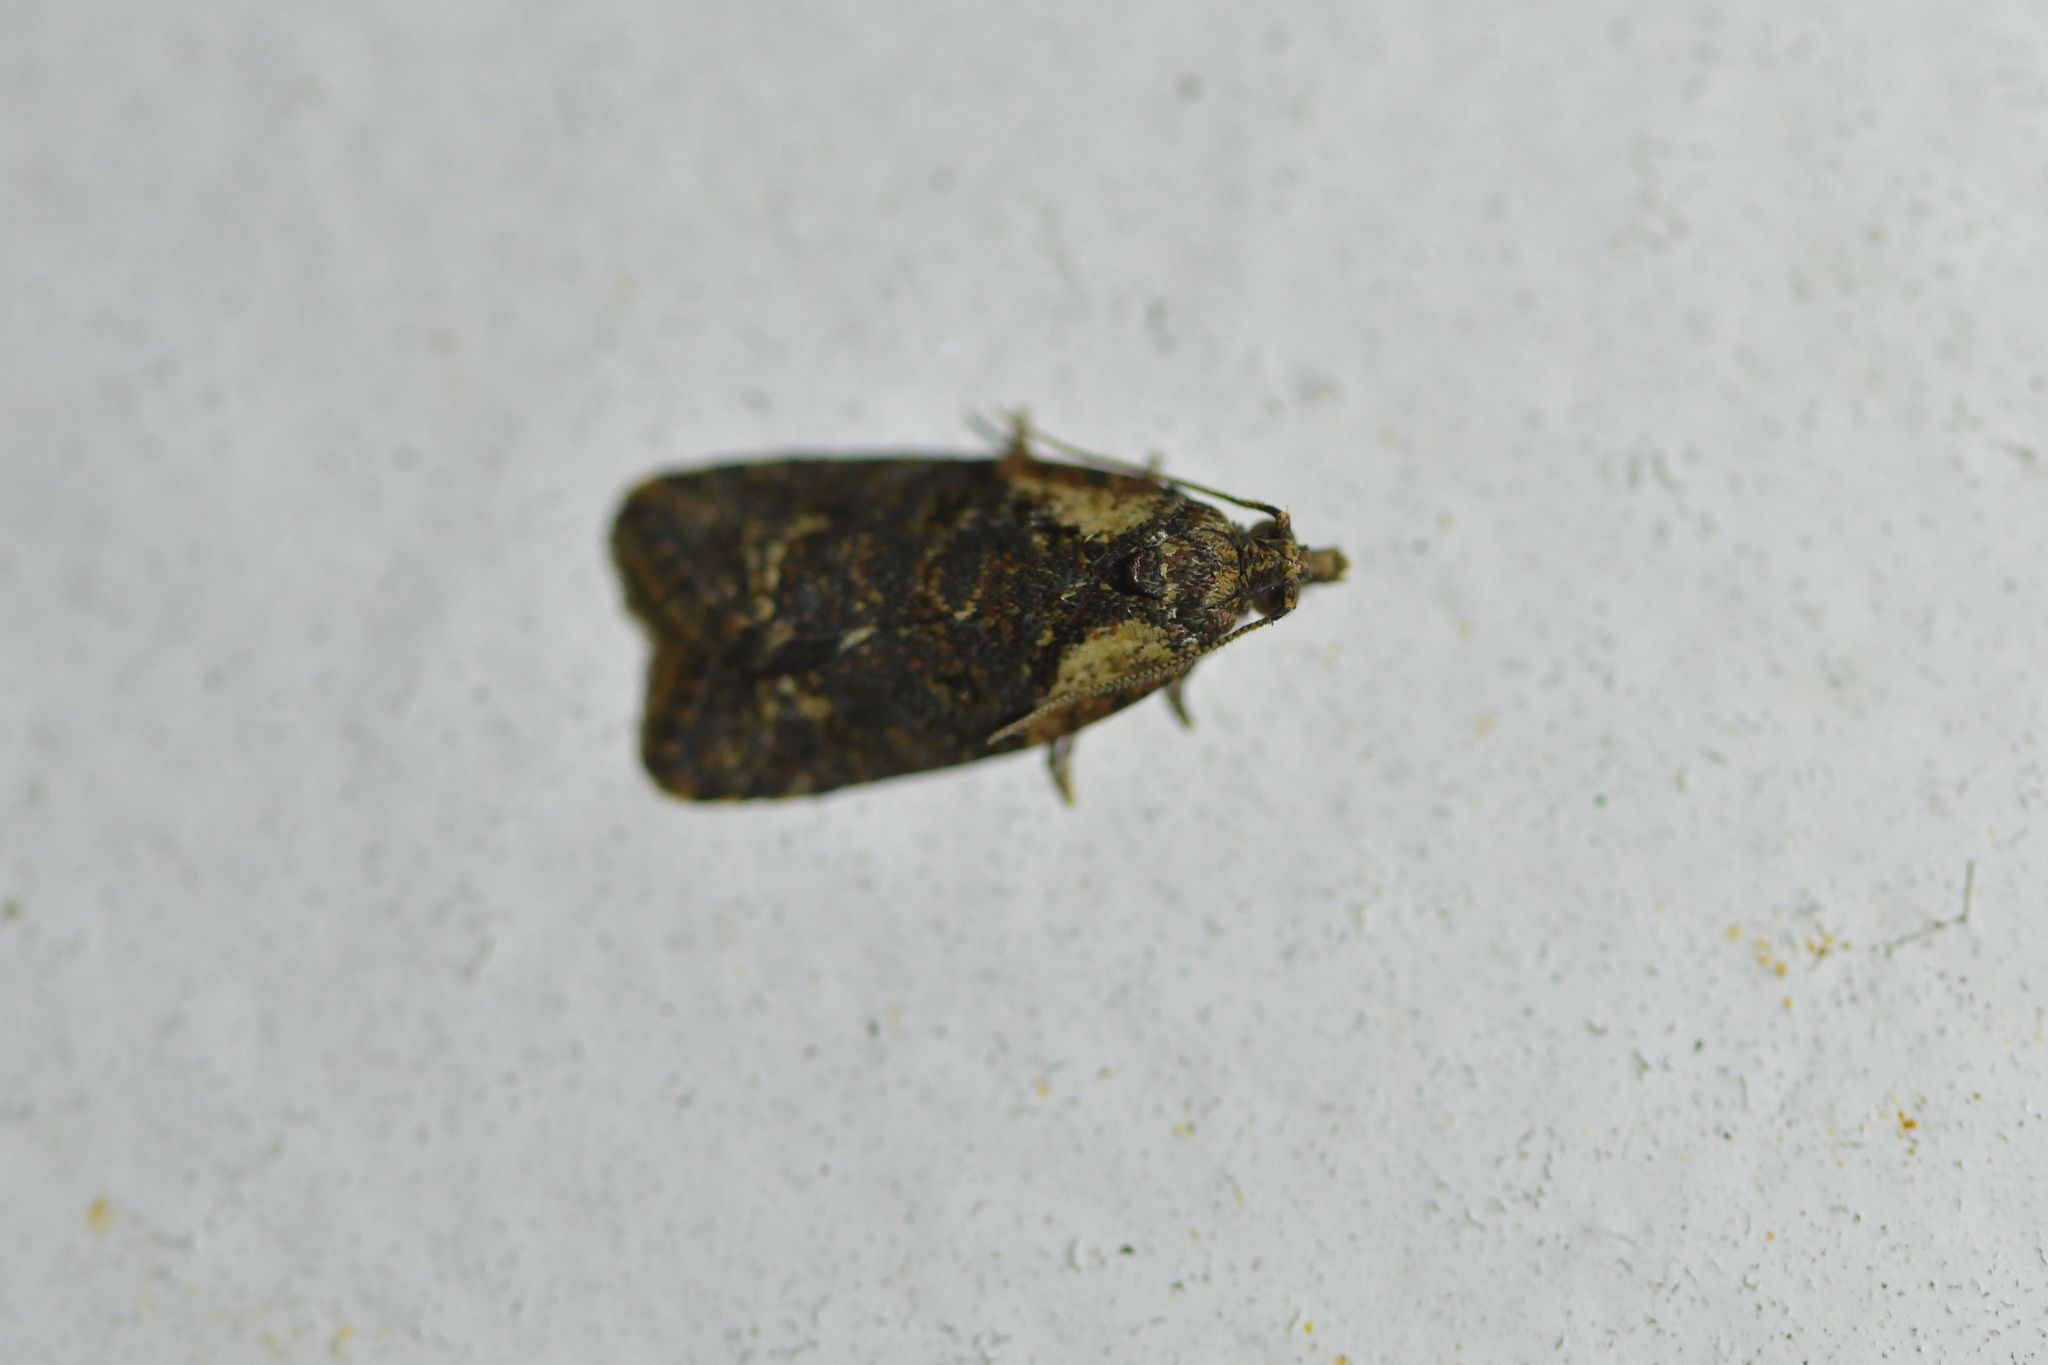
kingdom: Animalia
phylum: Arthropoda
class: Insecta
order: Lepidoptera
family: Tortricidae
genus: Capua
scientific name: Capua intractana
